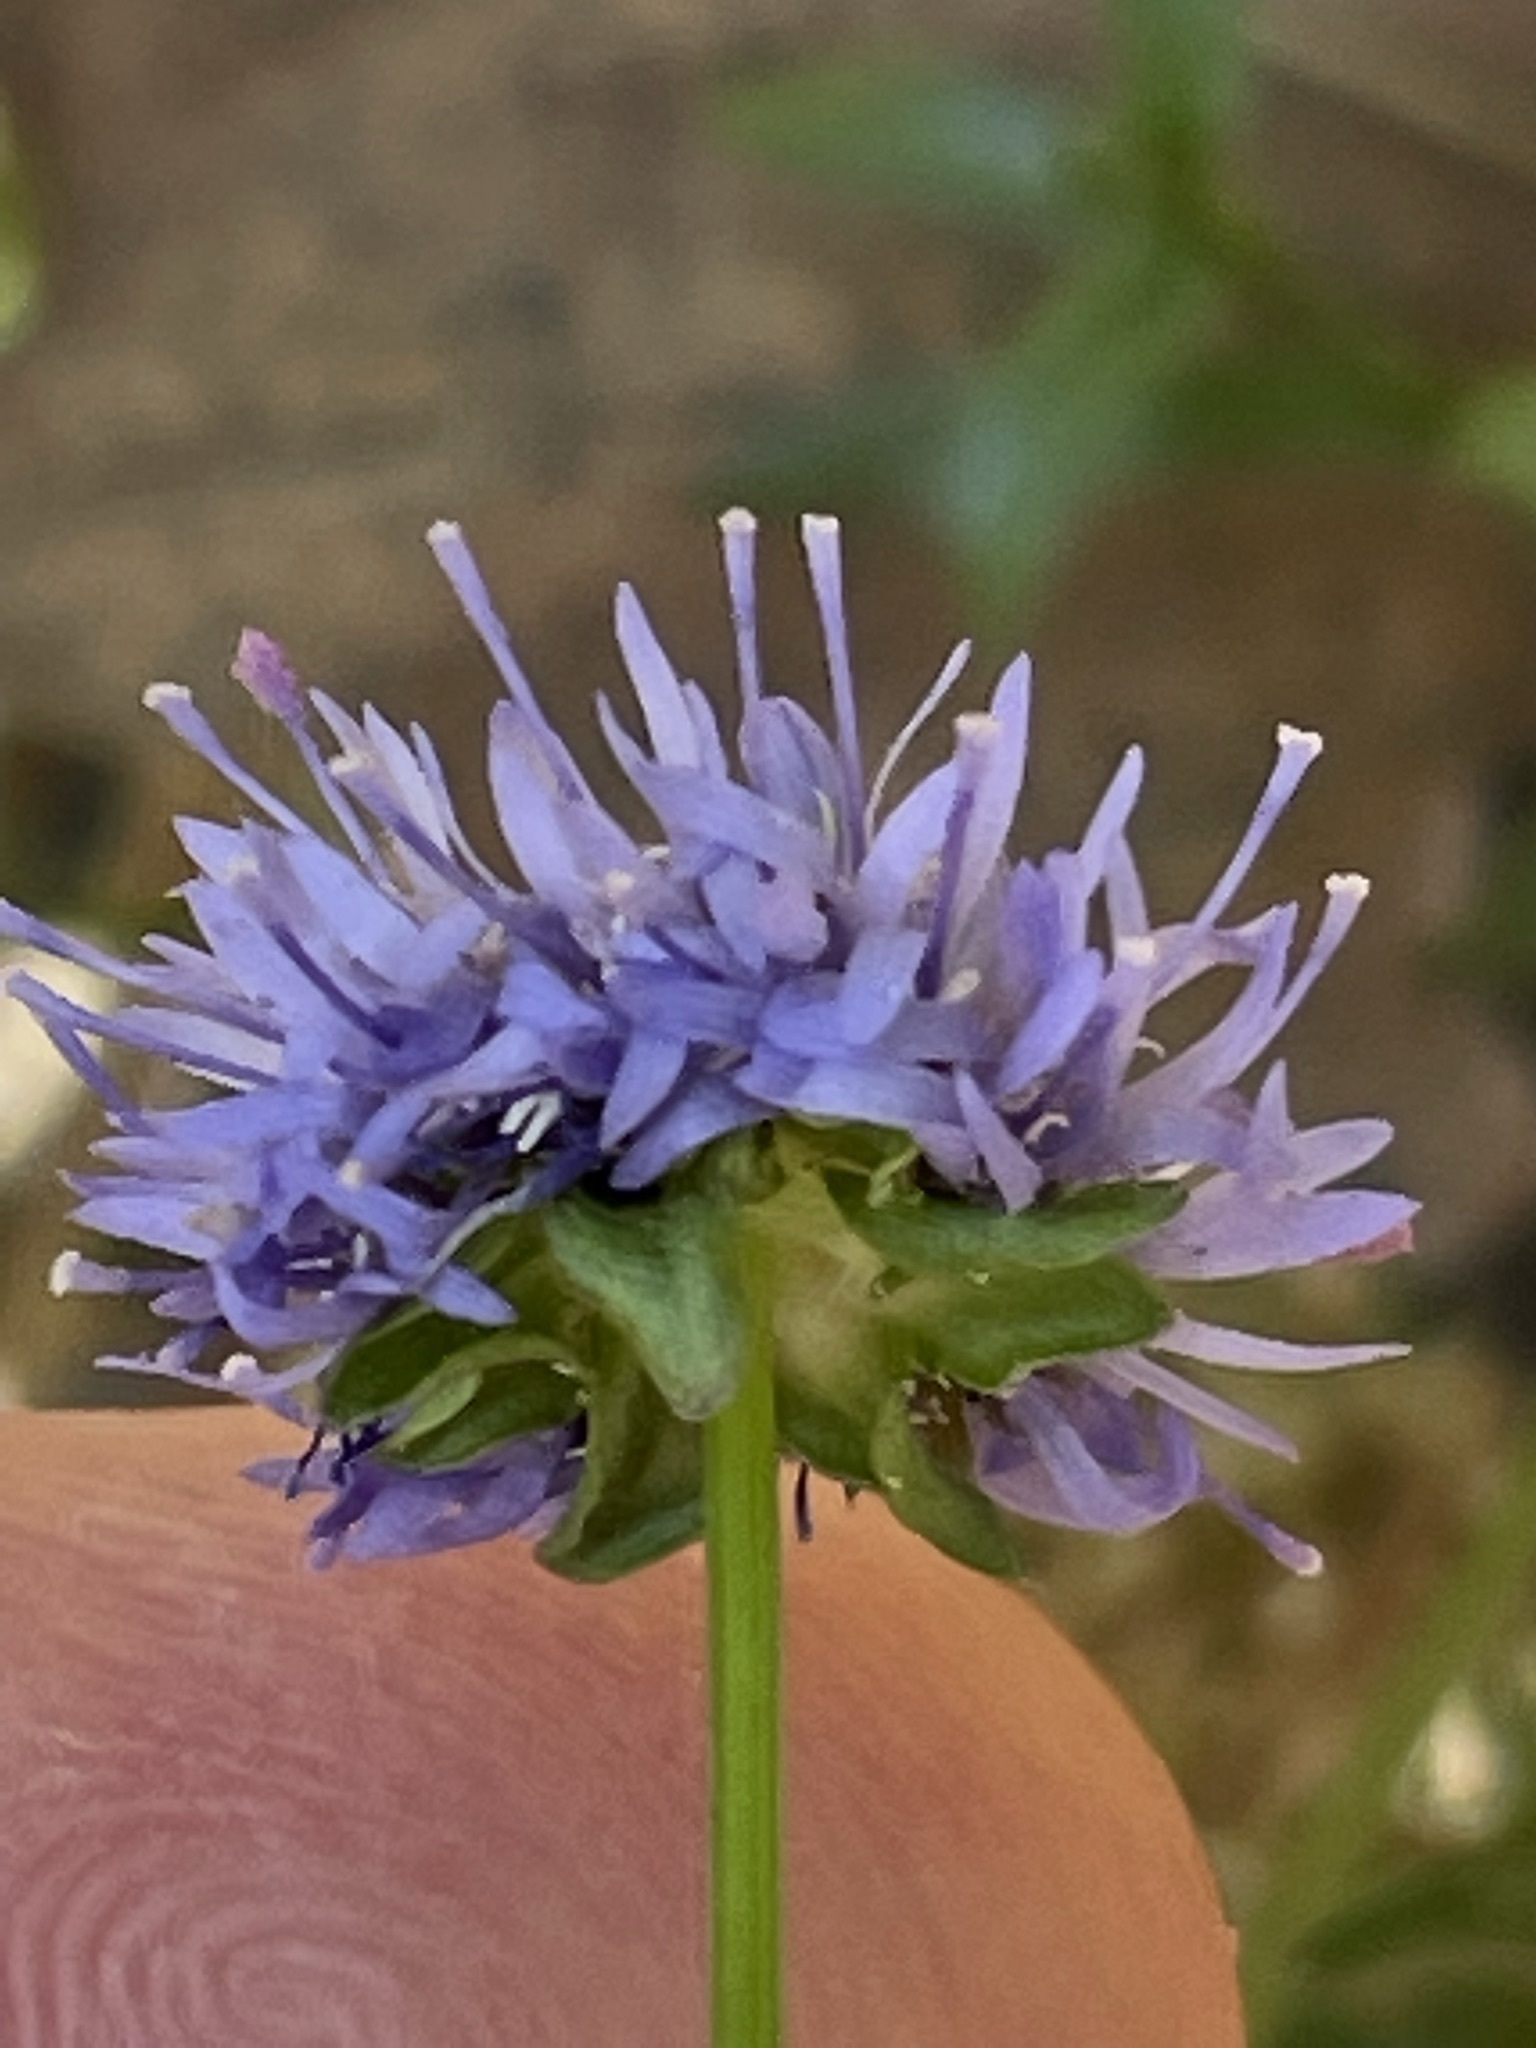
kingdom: Plantae
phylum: Tracheophyta
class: Magnoliopsida
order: Asterales
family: Campanulaceae
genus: Jasione
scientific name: Jasione montana
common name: Sheep's-bit
